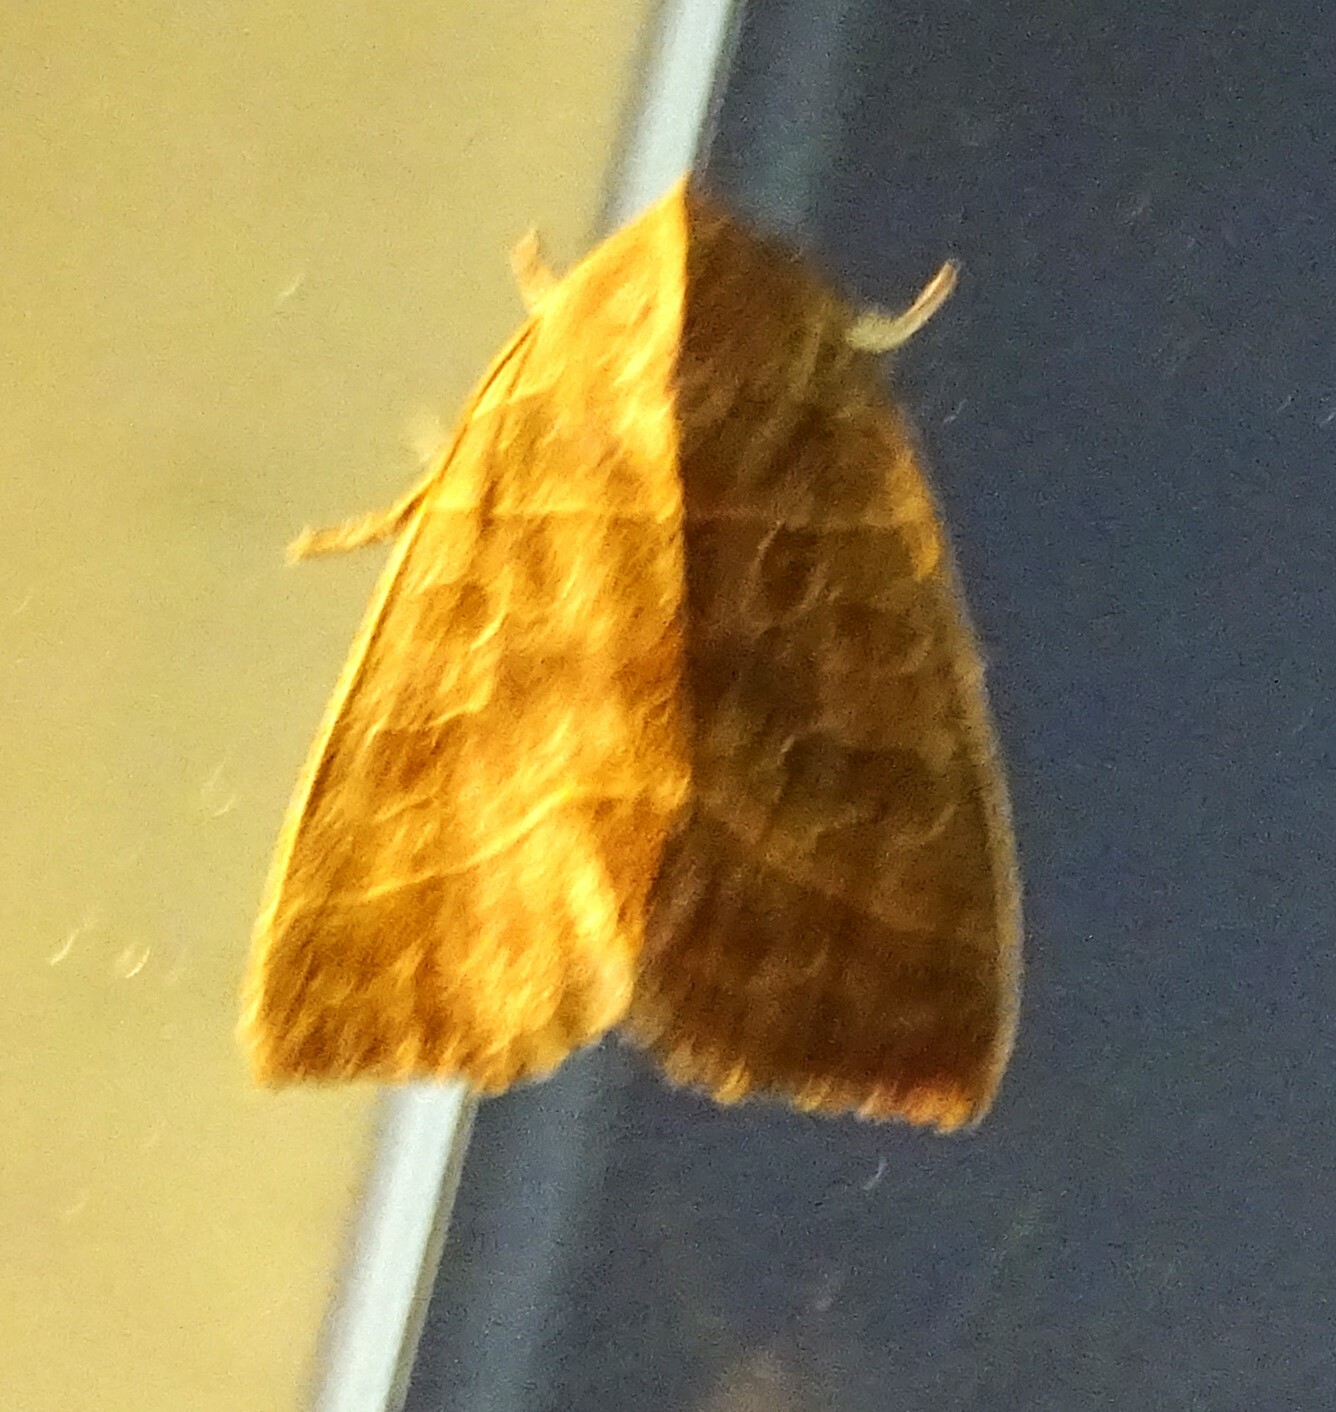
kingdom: Animalia
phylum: Arthropoda
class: Insecta
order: Lepidoptera
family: Noctuidae
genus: Ipimorpha
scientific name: Ipimorpha pleonectusa
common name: Even-lined sallow
